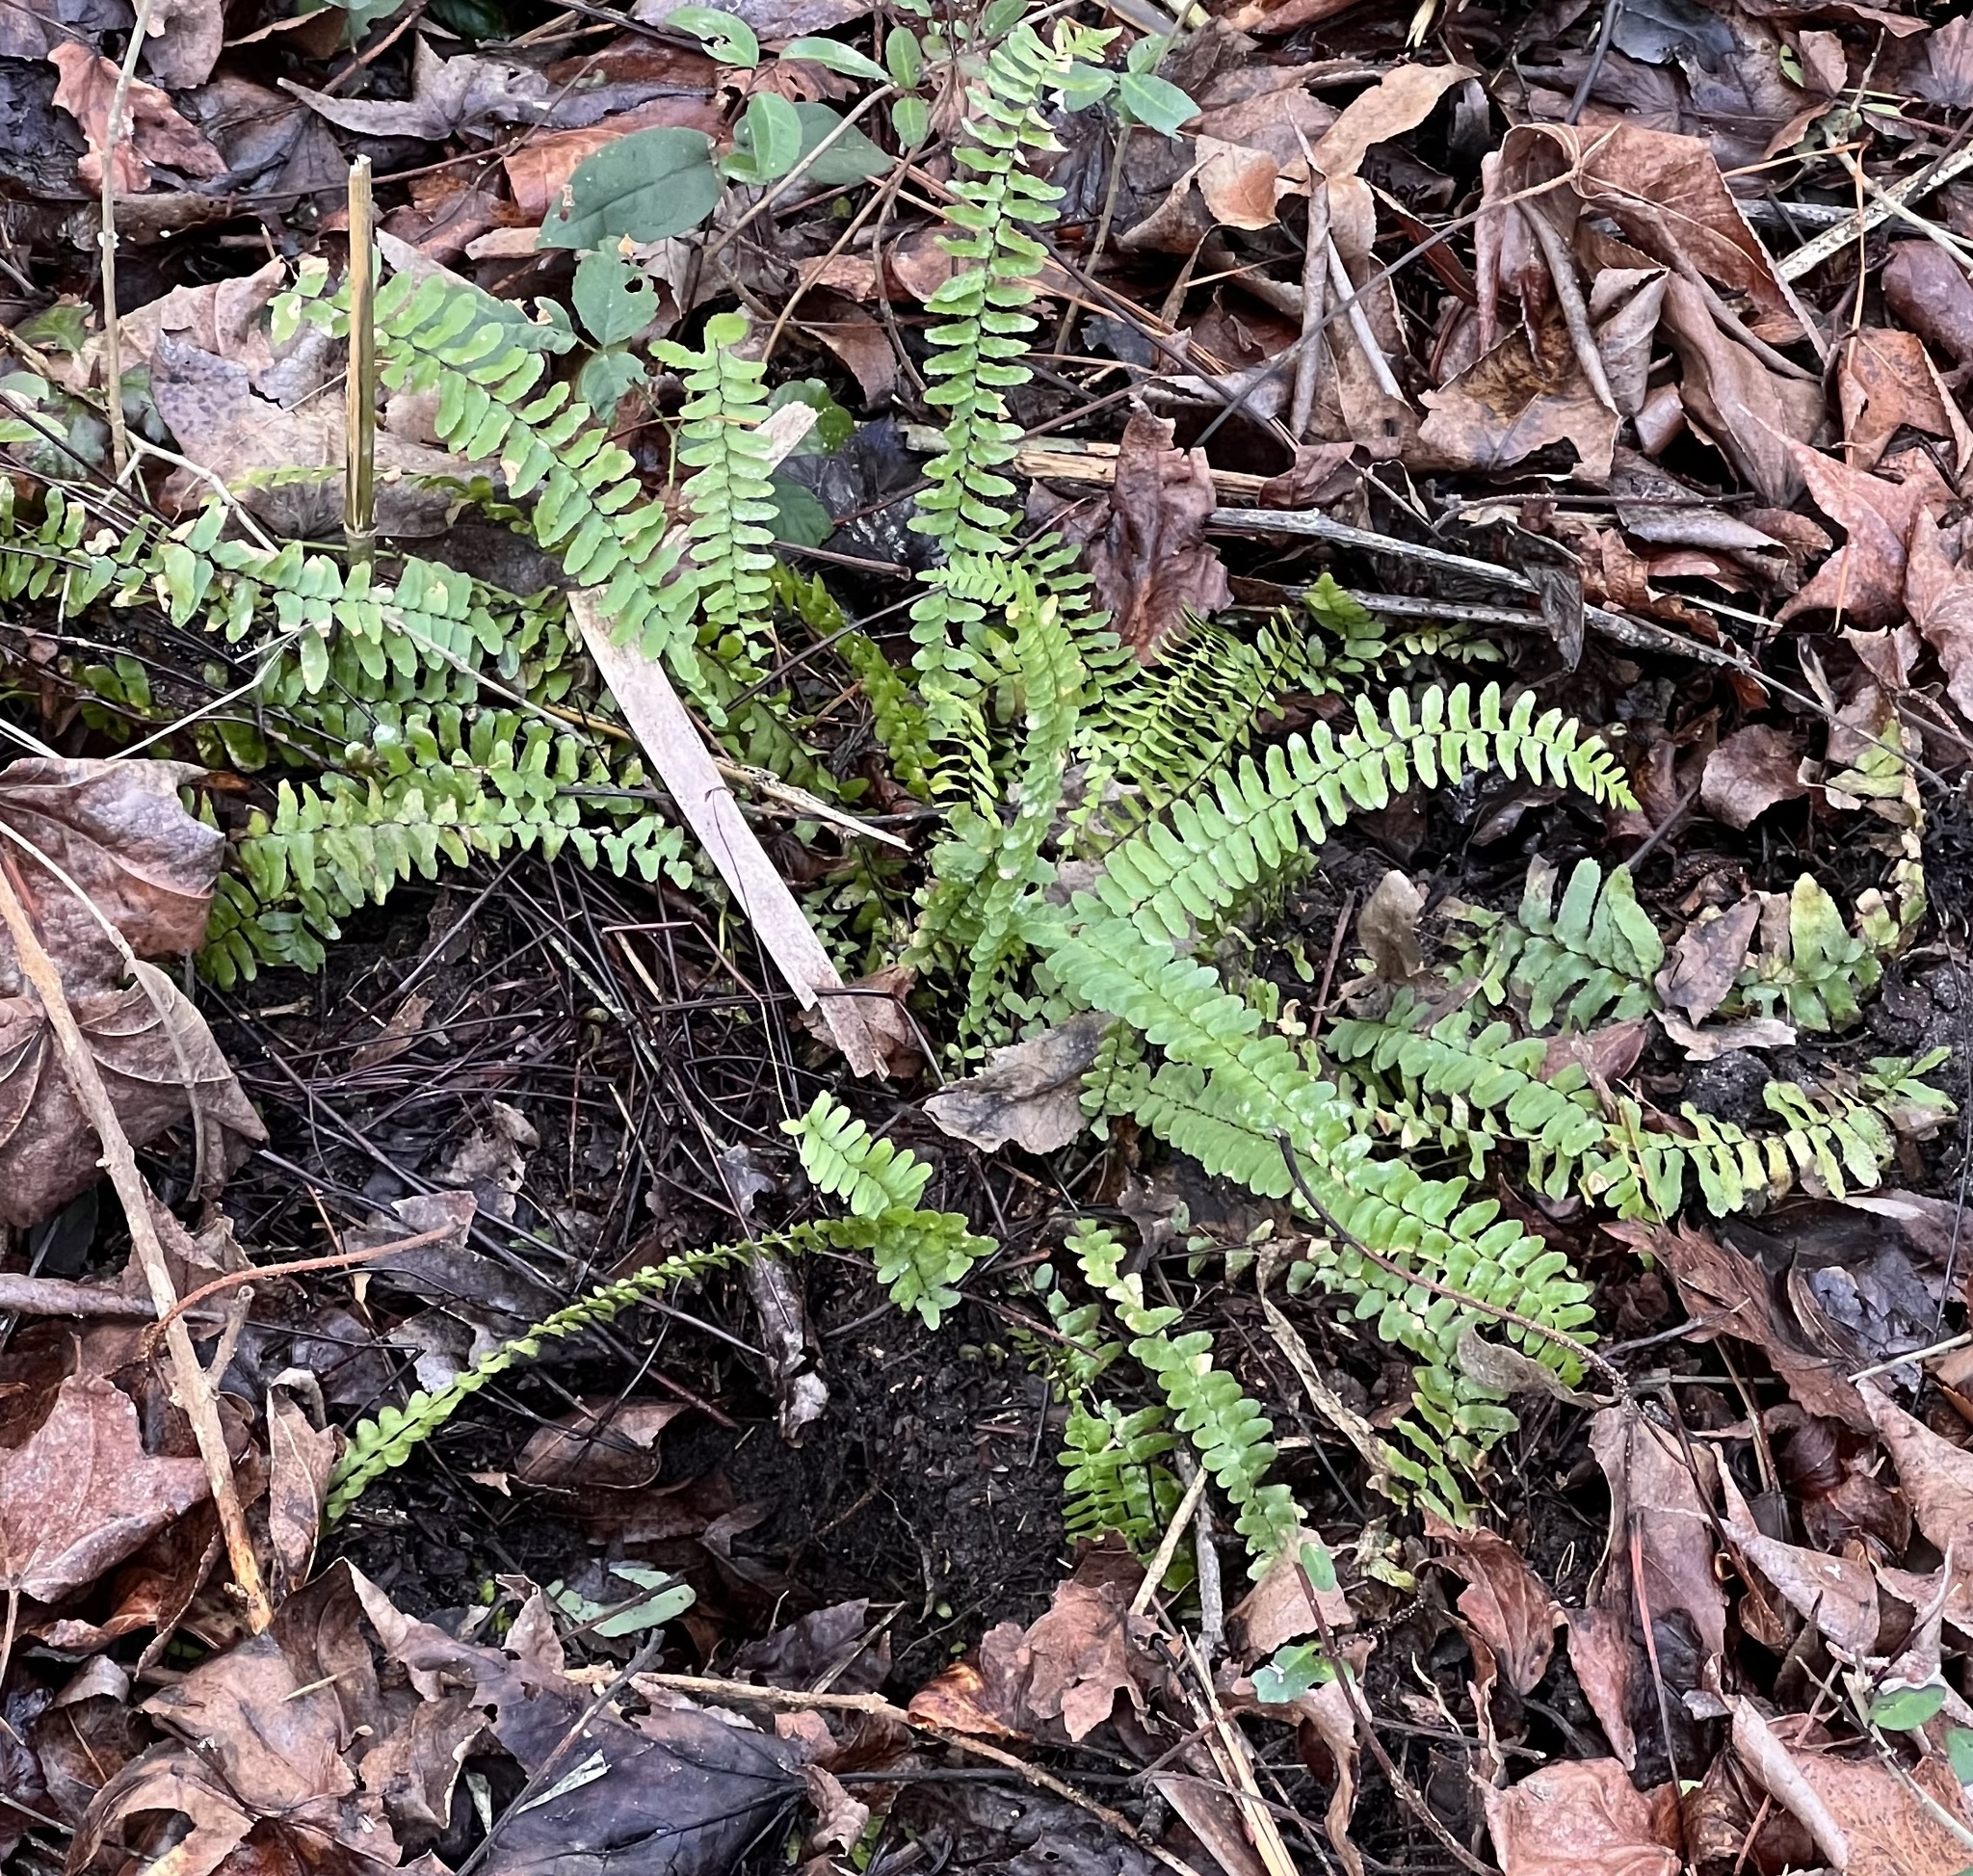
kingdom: Plantae
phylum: Tracheophyta
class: Polypodiopsida
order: Polypodiales
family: Aspleniaceae
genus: Asplenium
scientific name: Asplenium platyneuron
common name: Ebony spleenwort
